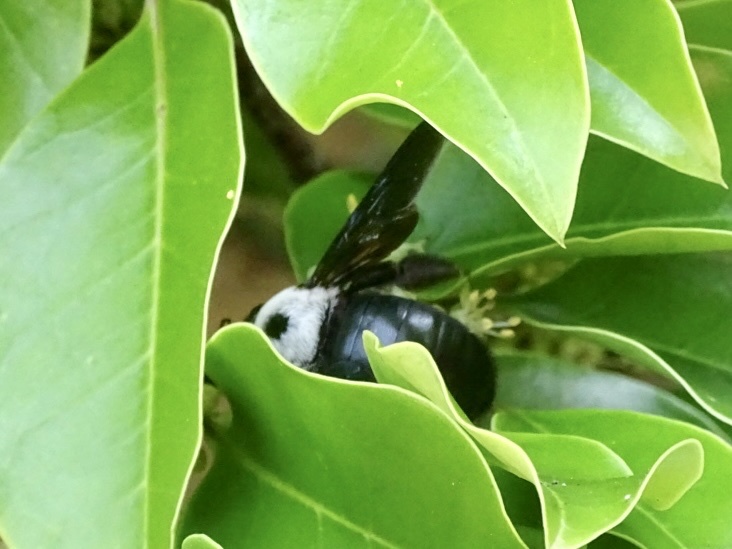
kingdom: Animalia
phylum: Arthropoda
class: Insecta
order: Hymenoptera
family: Apidae
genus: Xylocopa
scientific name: Xylocopa phalothorax
